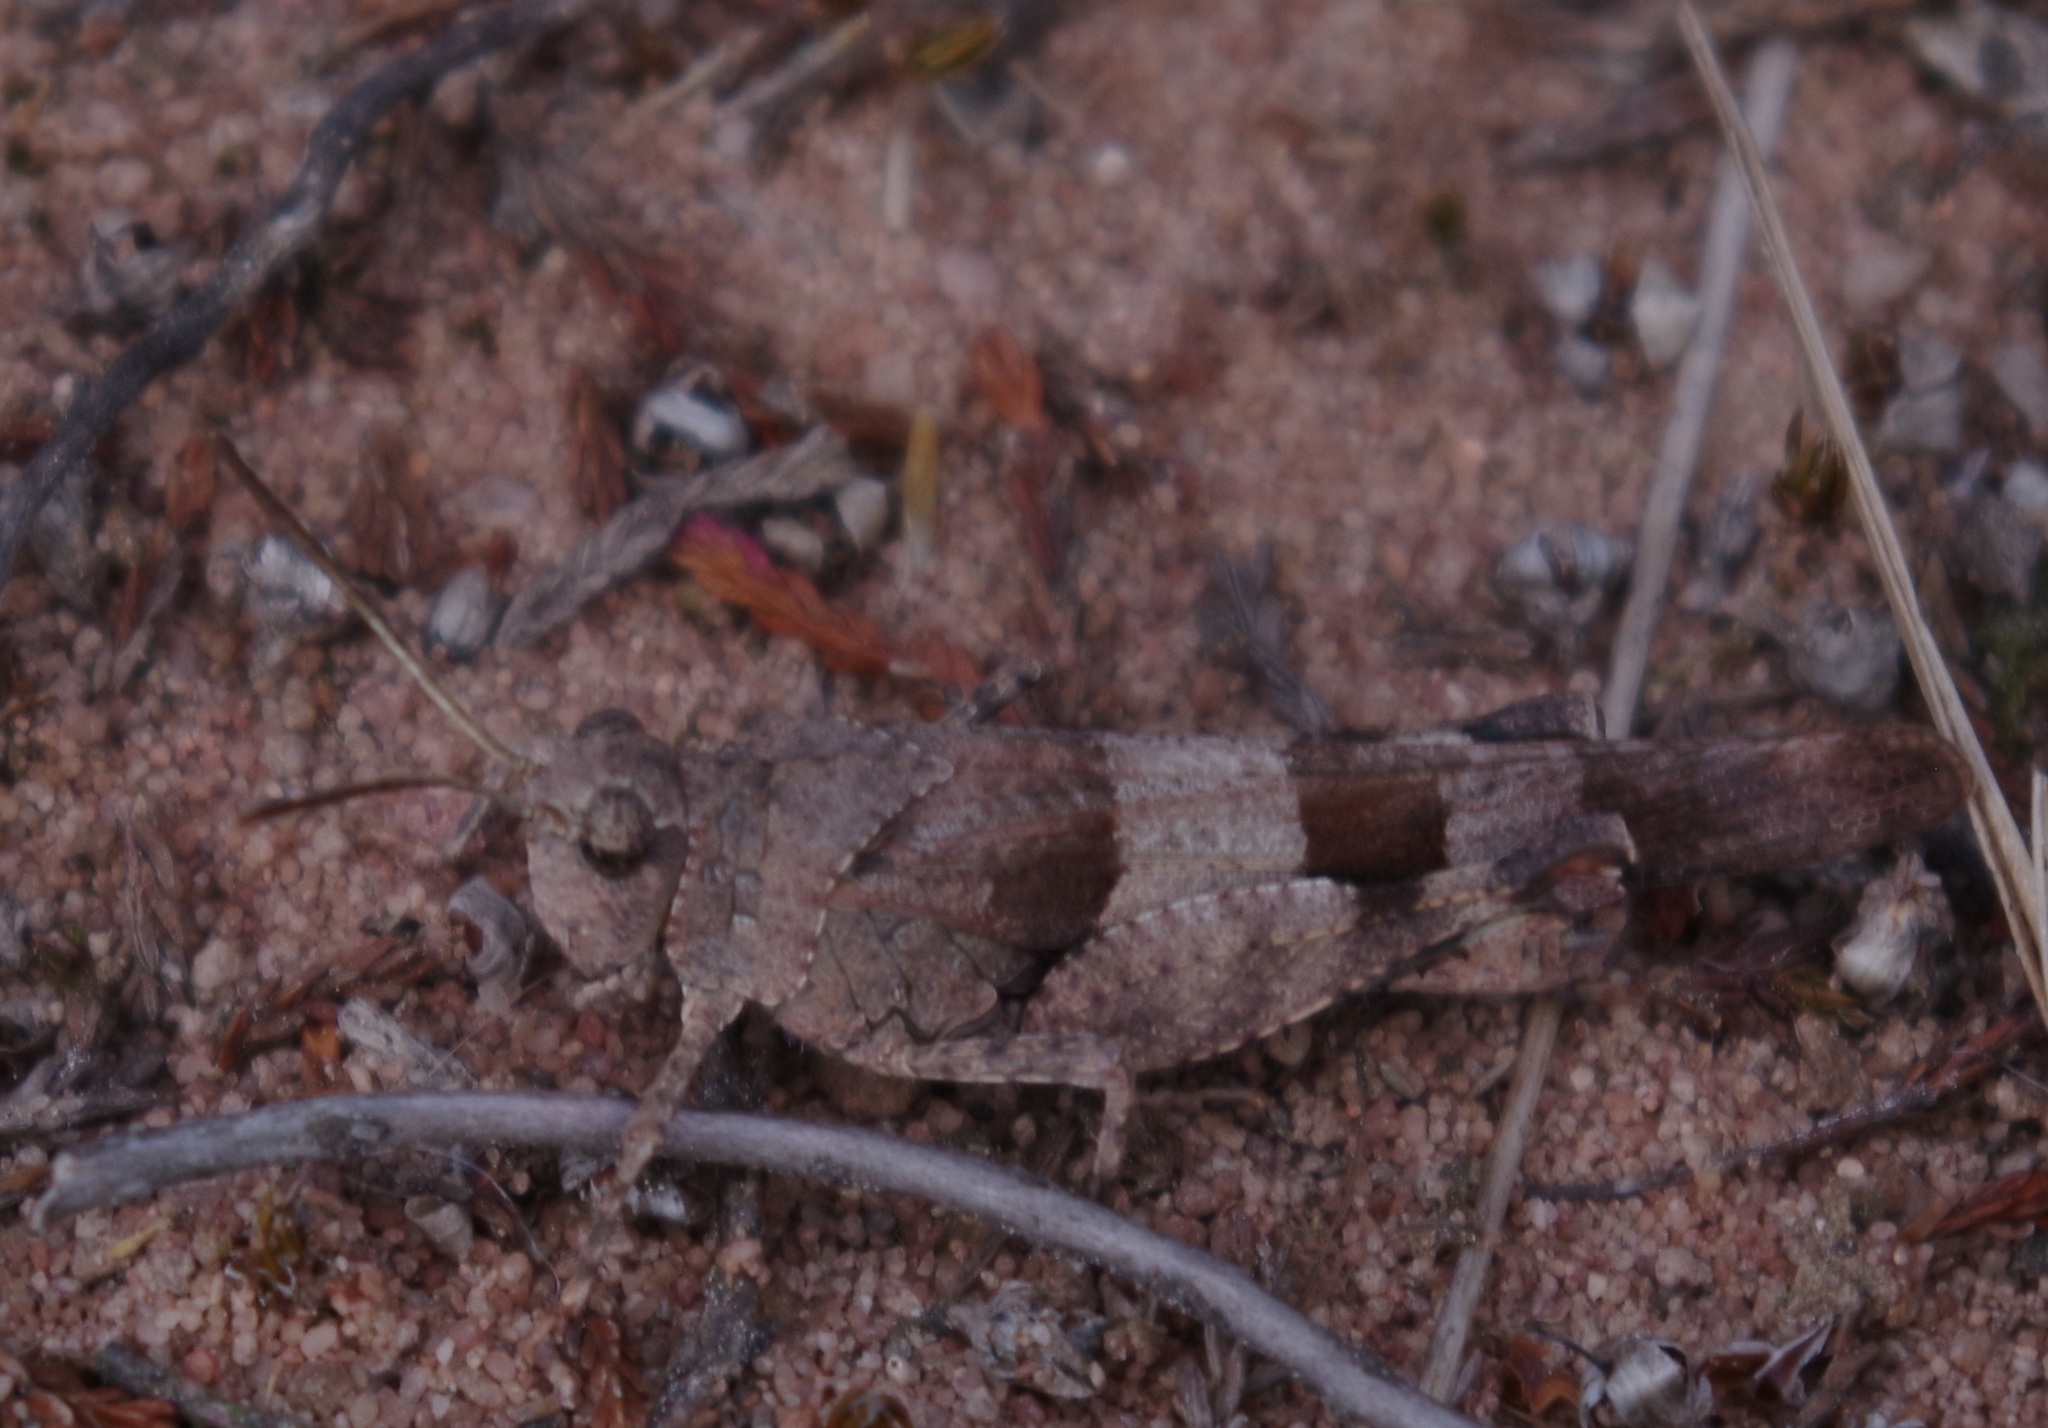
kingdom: Animalia
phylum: Arthropoda
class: Insecta
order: Orthoptera
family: Acrididae
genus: Oedipoda
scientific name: Oedipoda caerulescens
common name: Blue-winged grasshopper
